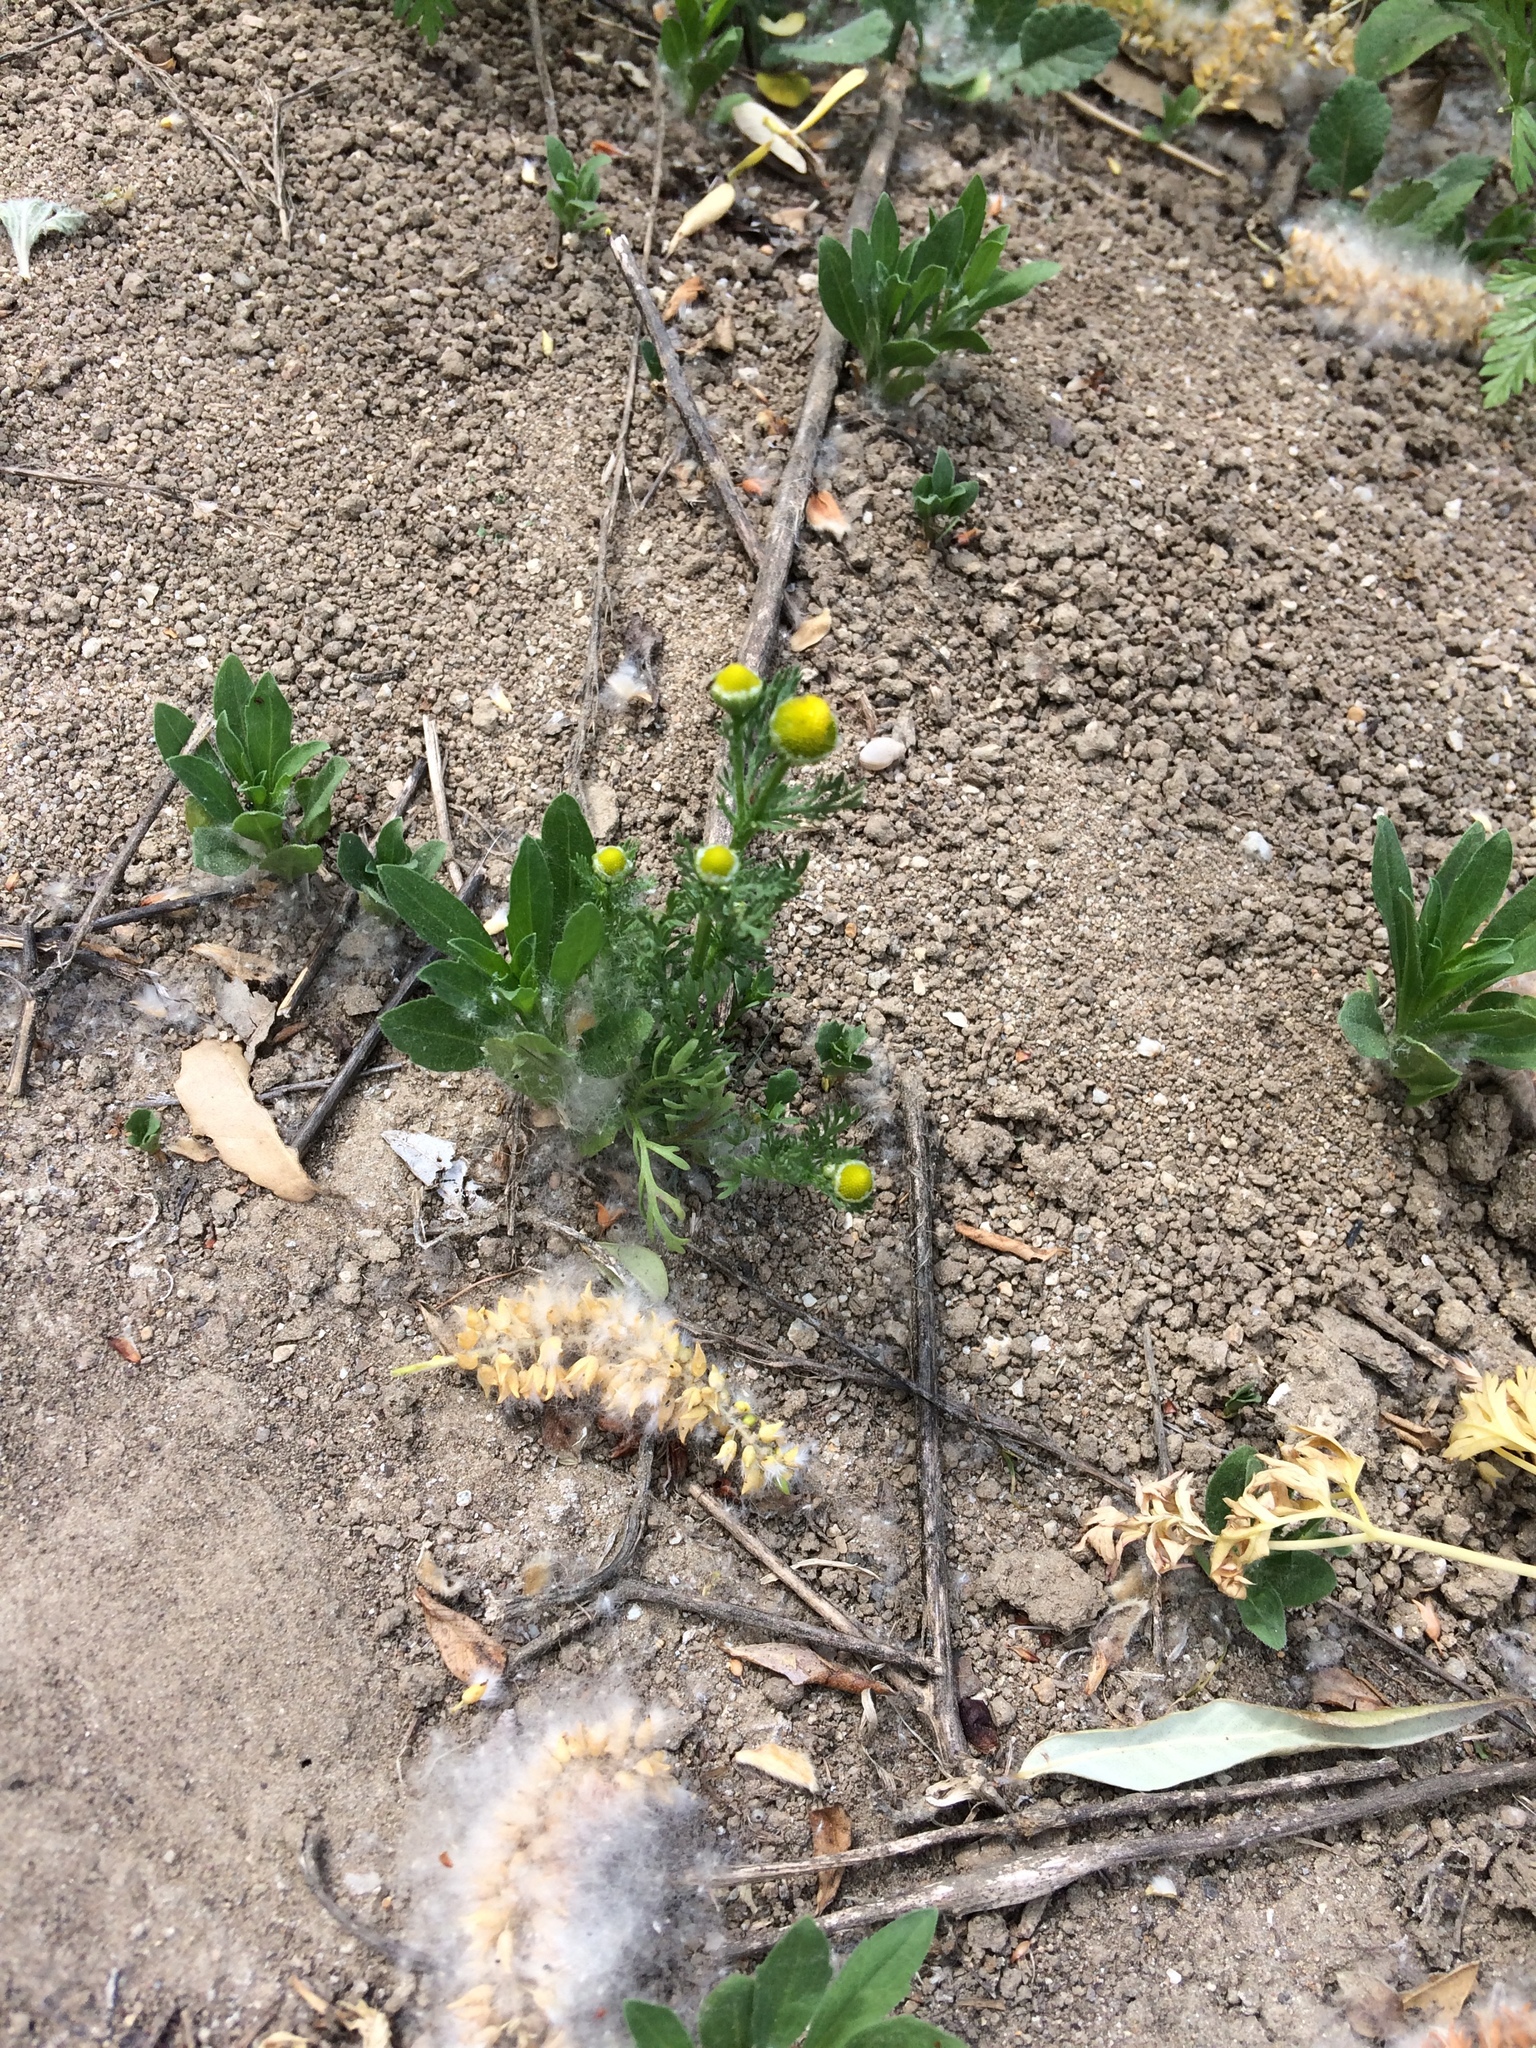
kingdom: Plantae
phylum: Tracheophyta
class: Magnoliopsida
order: Asterales
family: Asteraceae
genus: Matricaria
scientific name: Matricaria discoidea
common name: Disc mayweed
